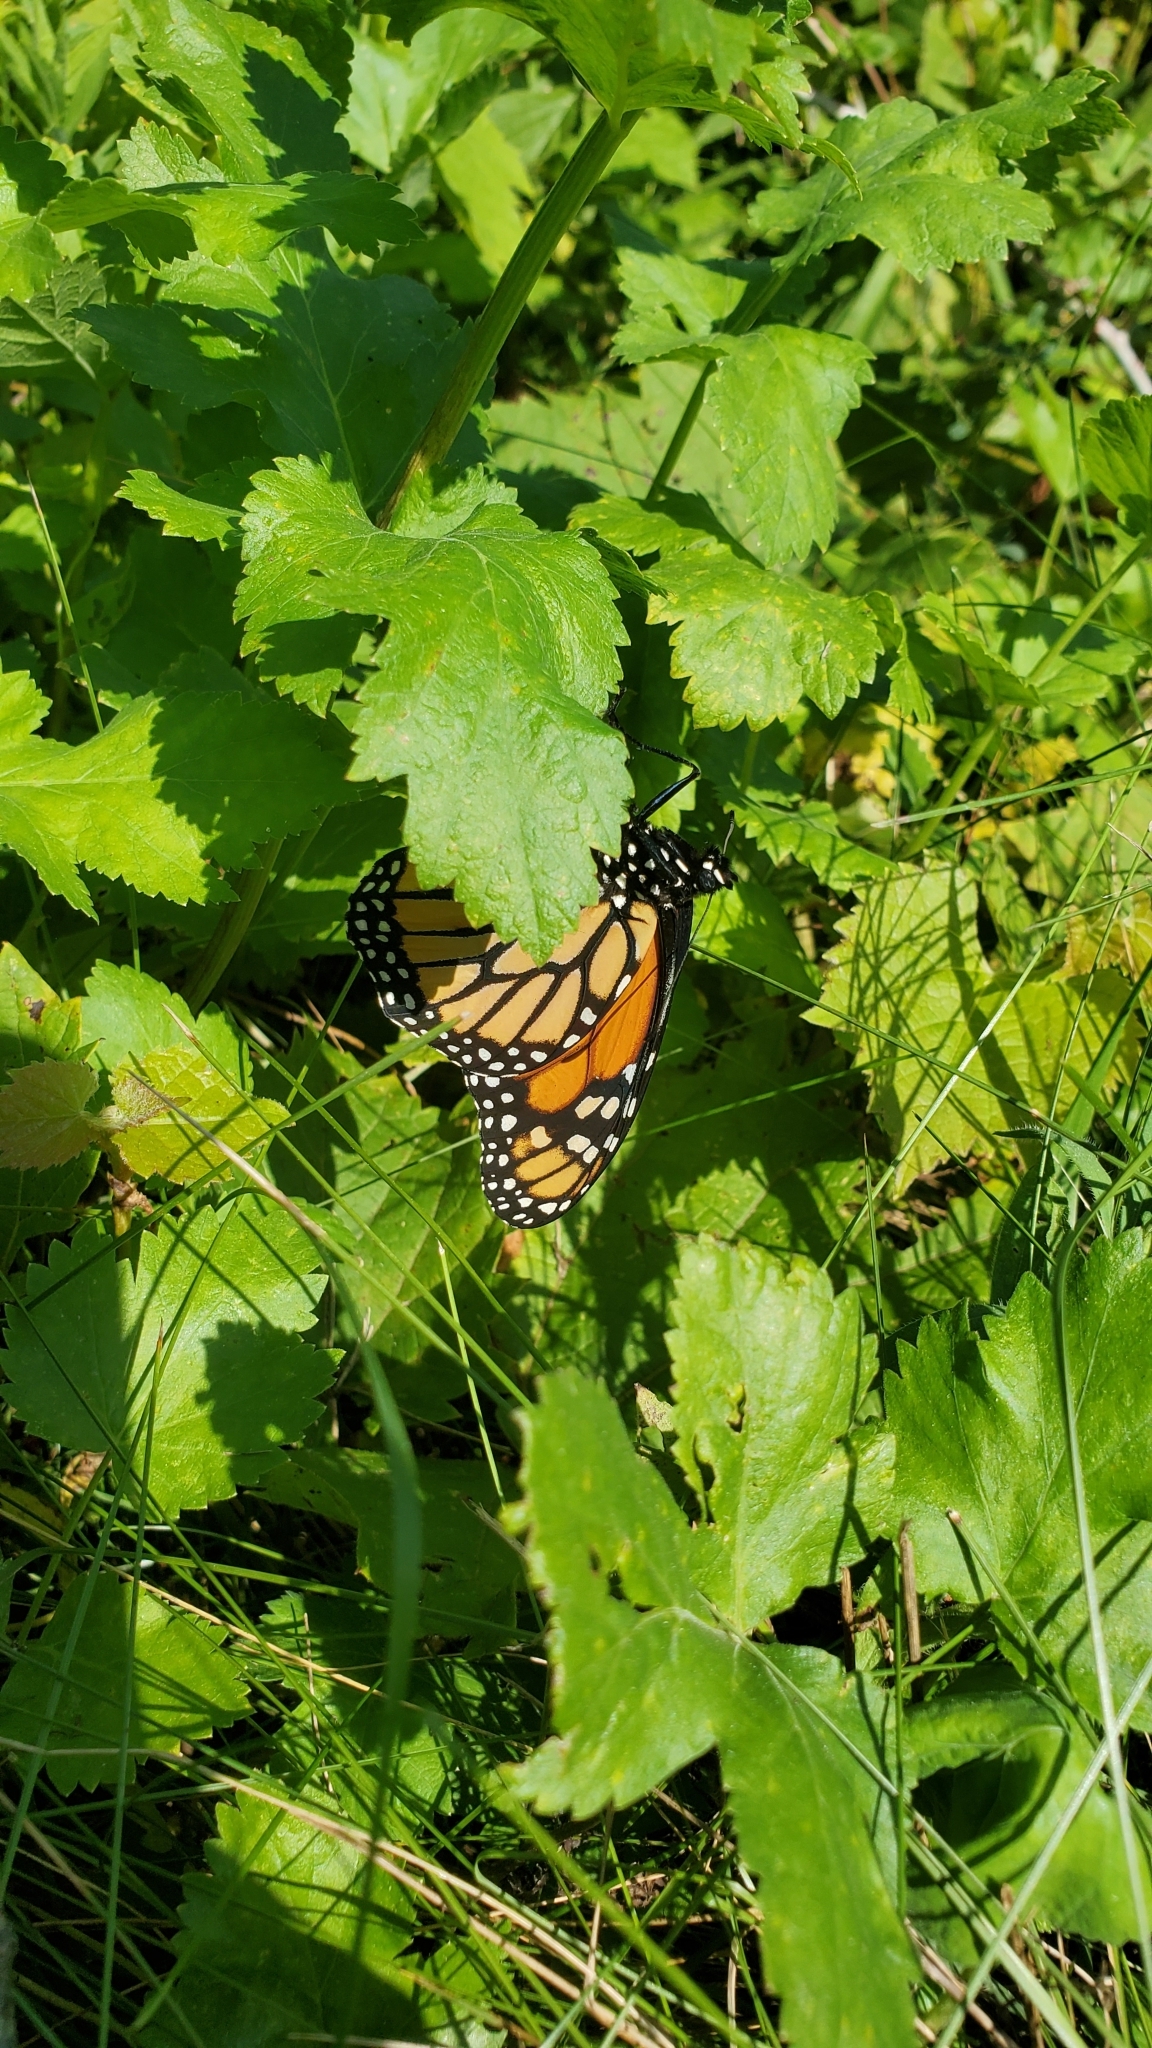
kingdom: Animalia
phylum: Arthropoda
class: Insecta
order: Lepidoptera
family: Nymphalidae
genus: Danaus
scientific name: Danaus plexippus
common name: Monarch
